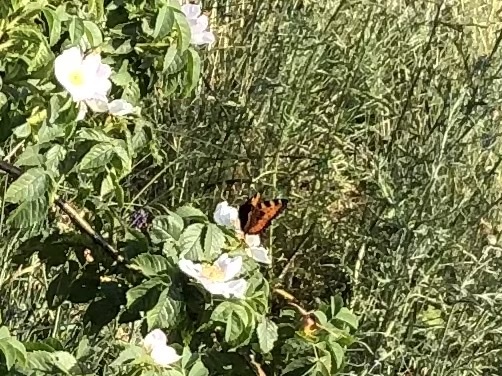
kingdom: Animalia
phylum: Arthropoda
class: Insecta
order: Lepidoptera
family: Nymphalidae
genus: Aglais
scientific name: Aglais urticae
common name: Small tortoiseshell
